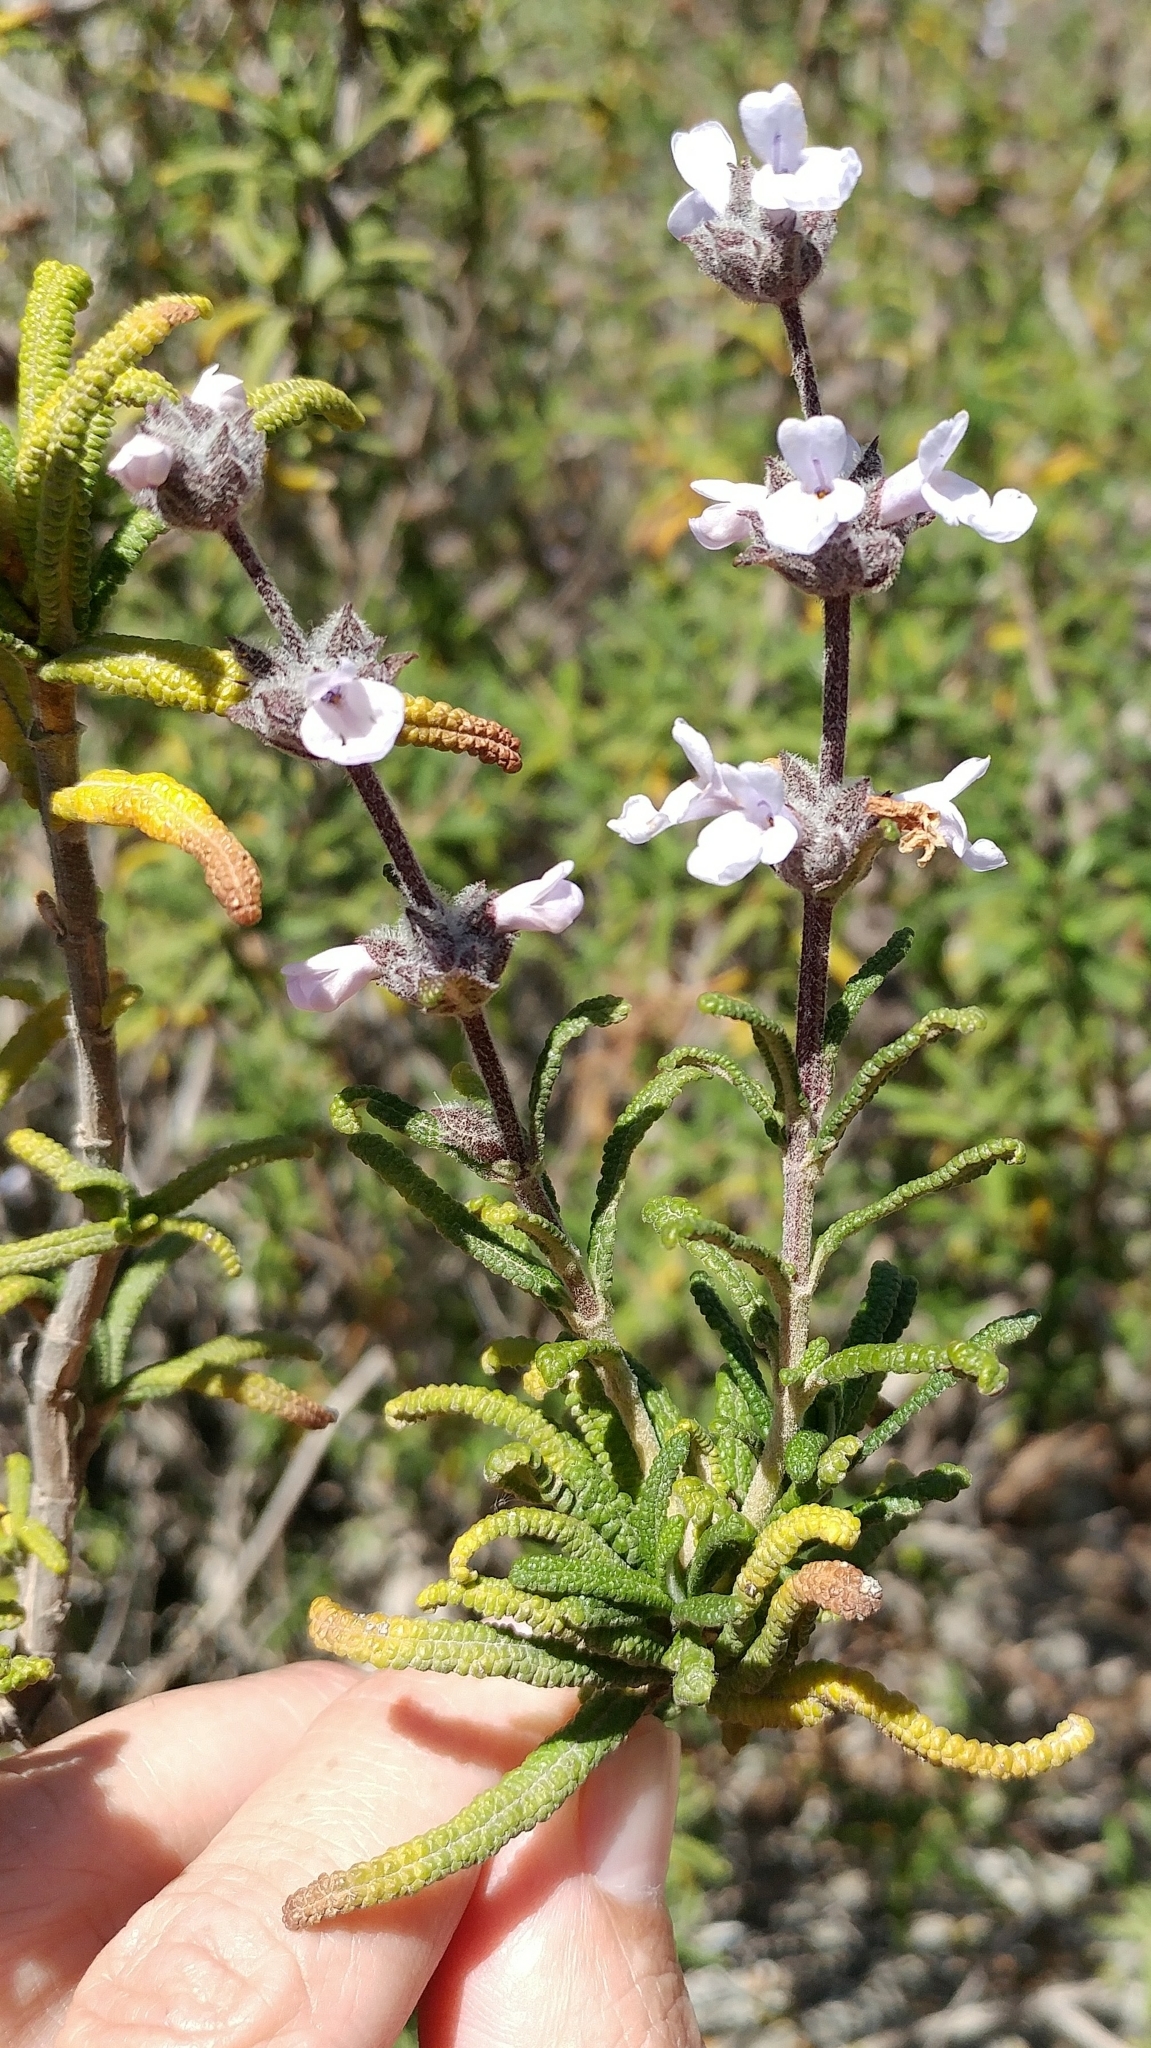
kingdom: Plantae
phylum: Tracheophyta
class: Magnoliopsida
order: Lamiales
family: Lamiaceae
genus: Salvia
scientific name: Salvia brandegeei
